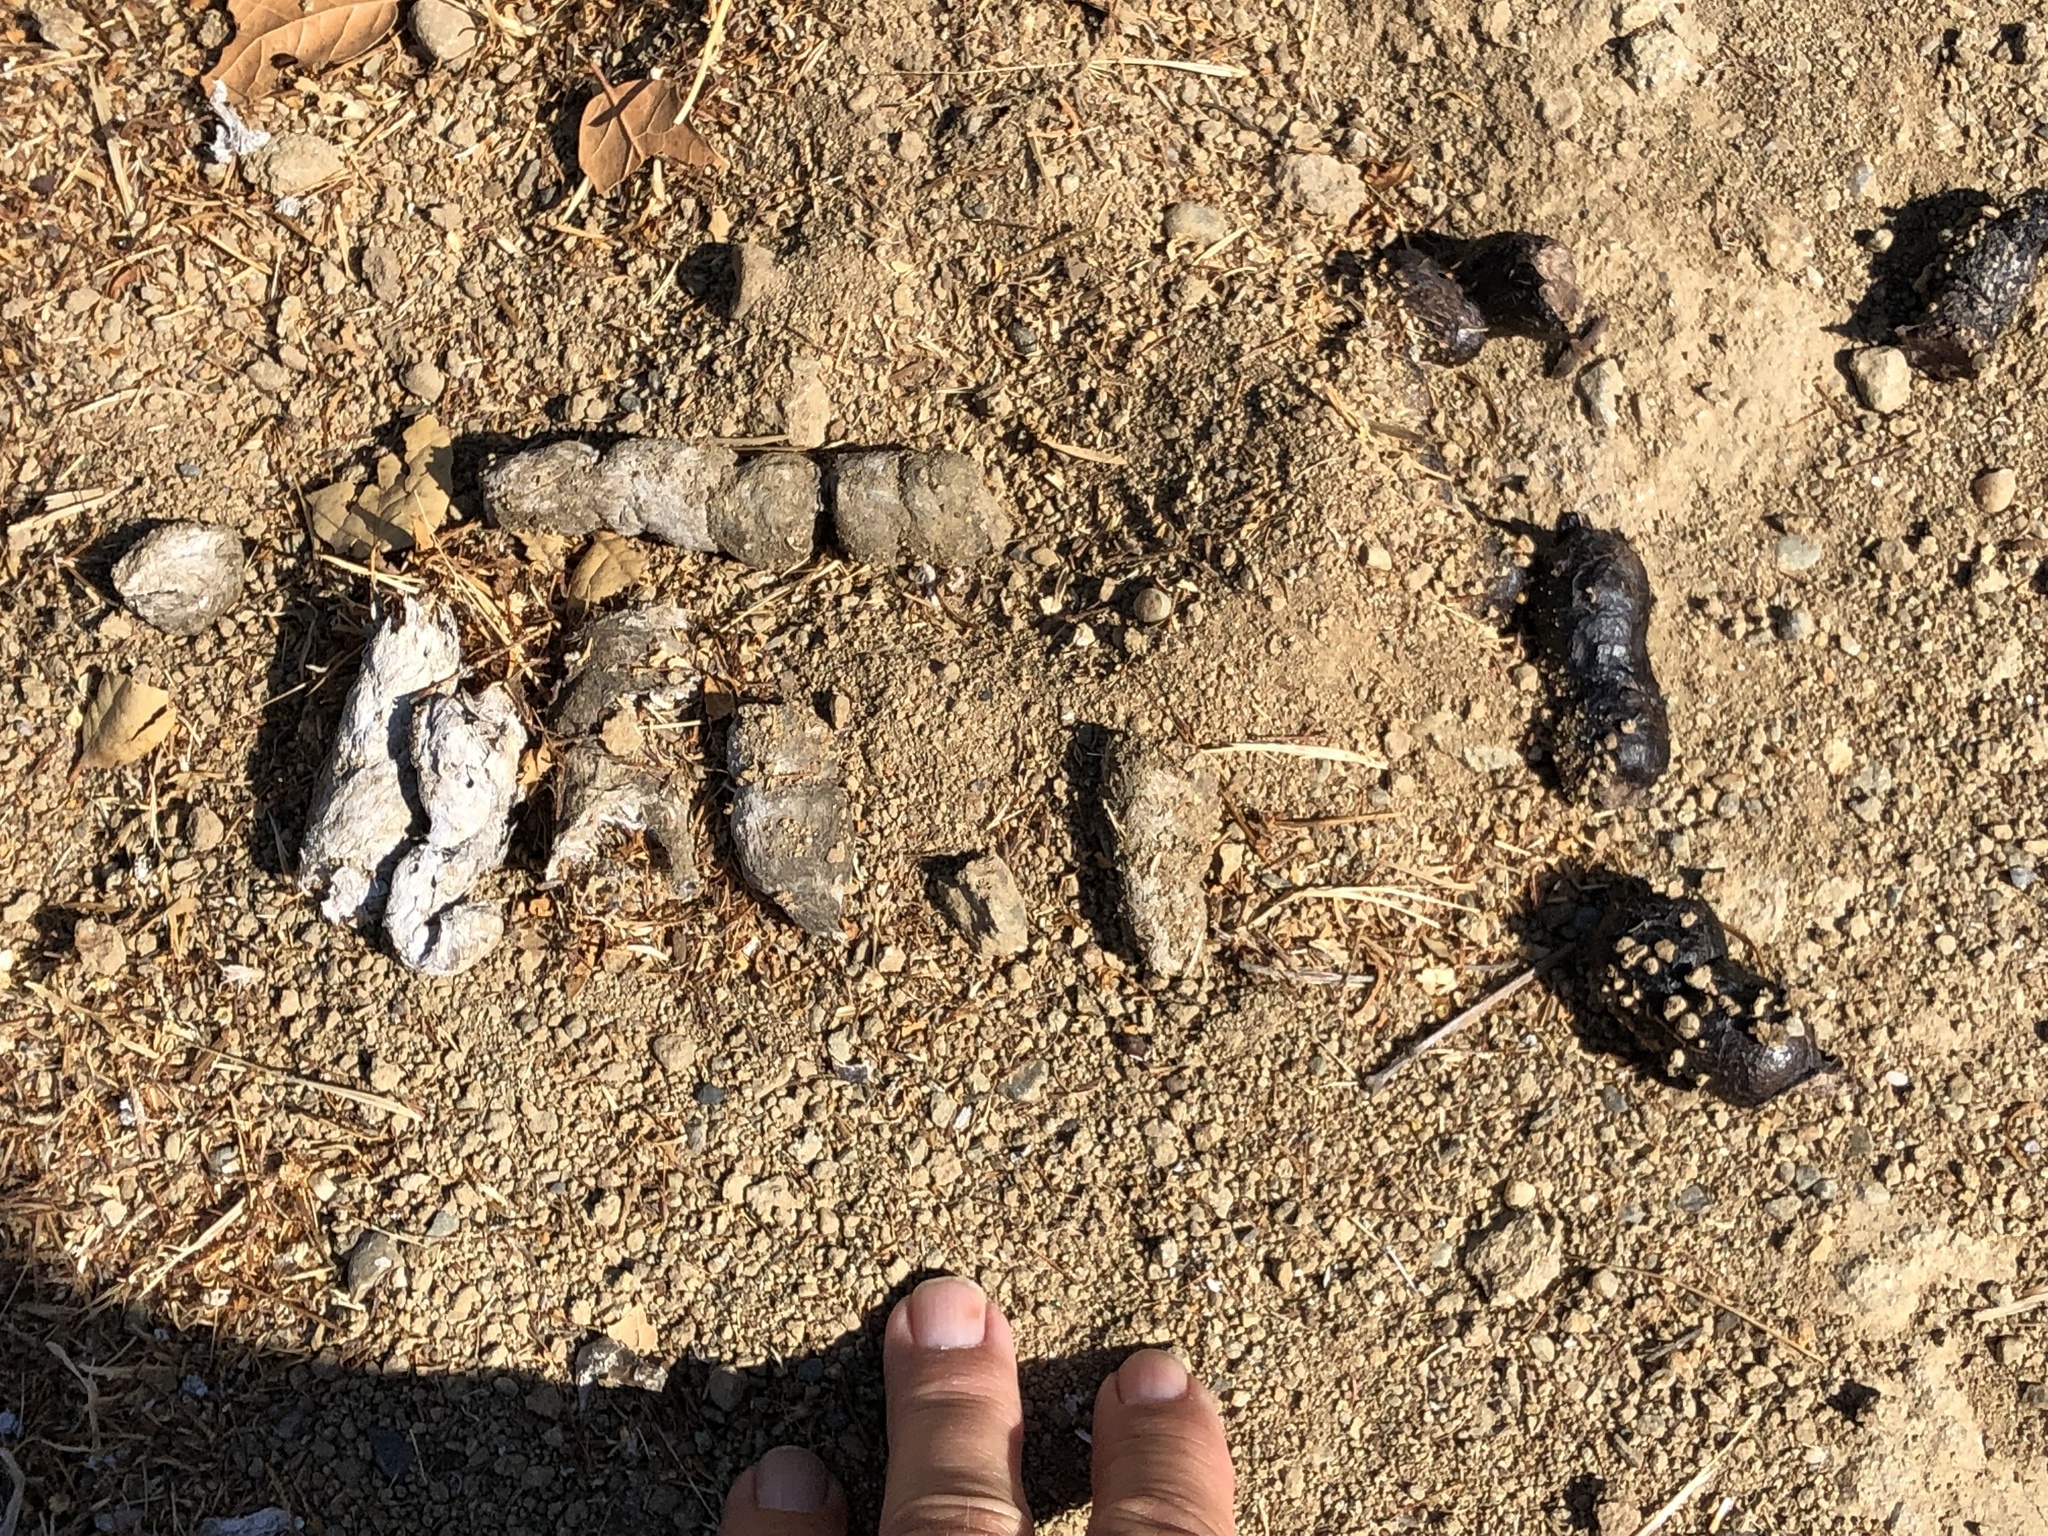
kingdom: Animalia
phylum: Chordata
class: Mammalia
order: Carnivora
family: Canidae
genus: Canis
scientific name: Canis latrans
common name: Coyote
